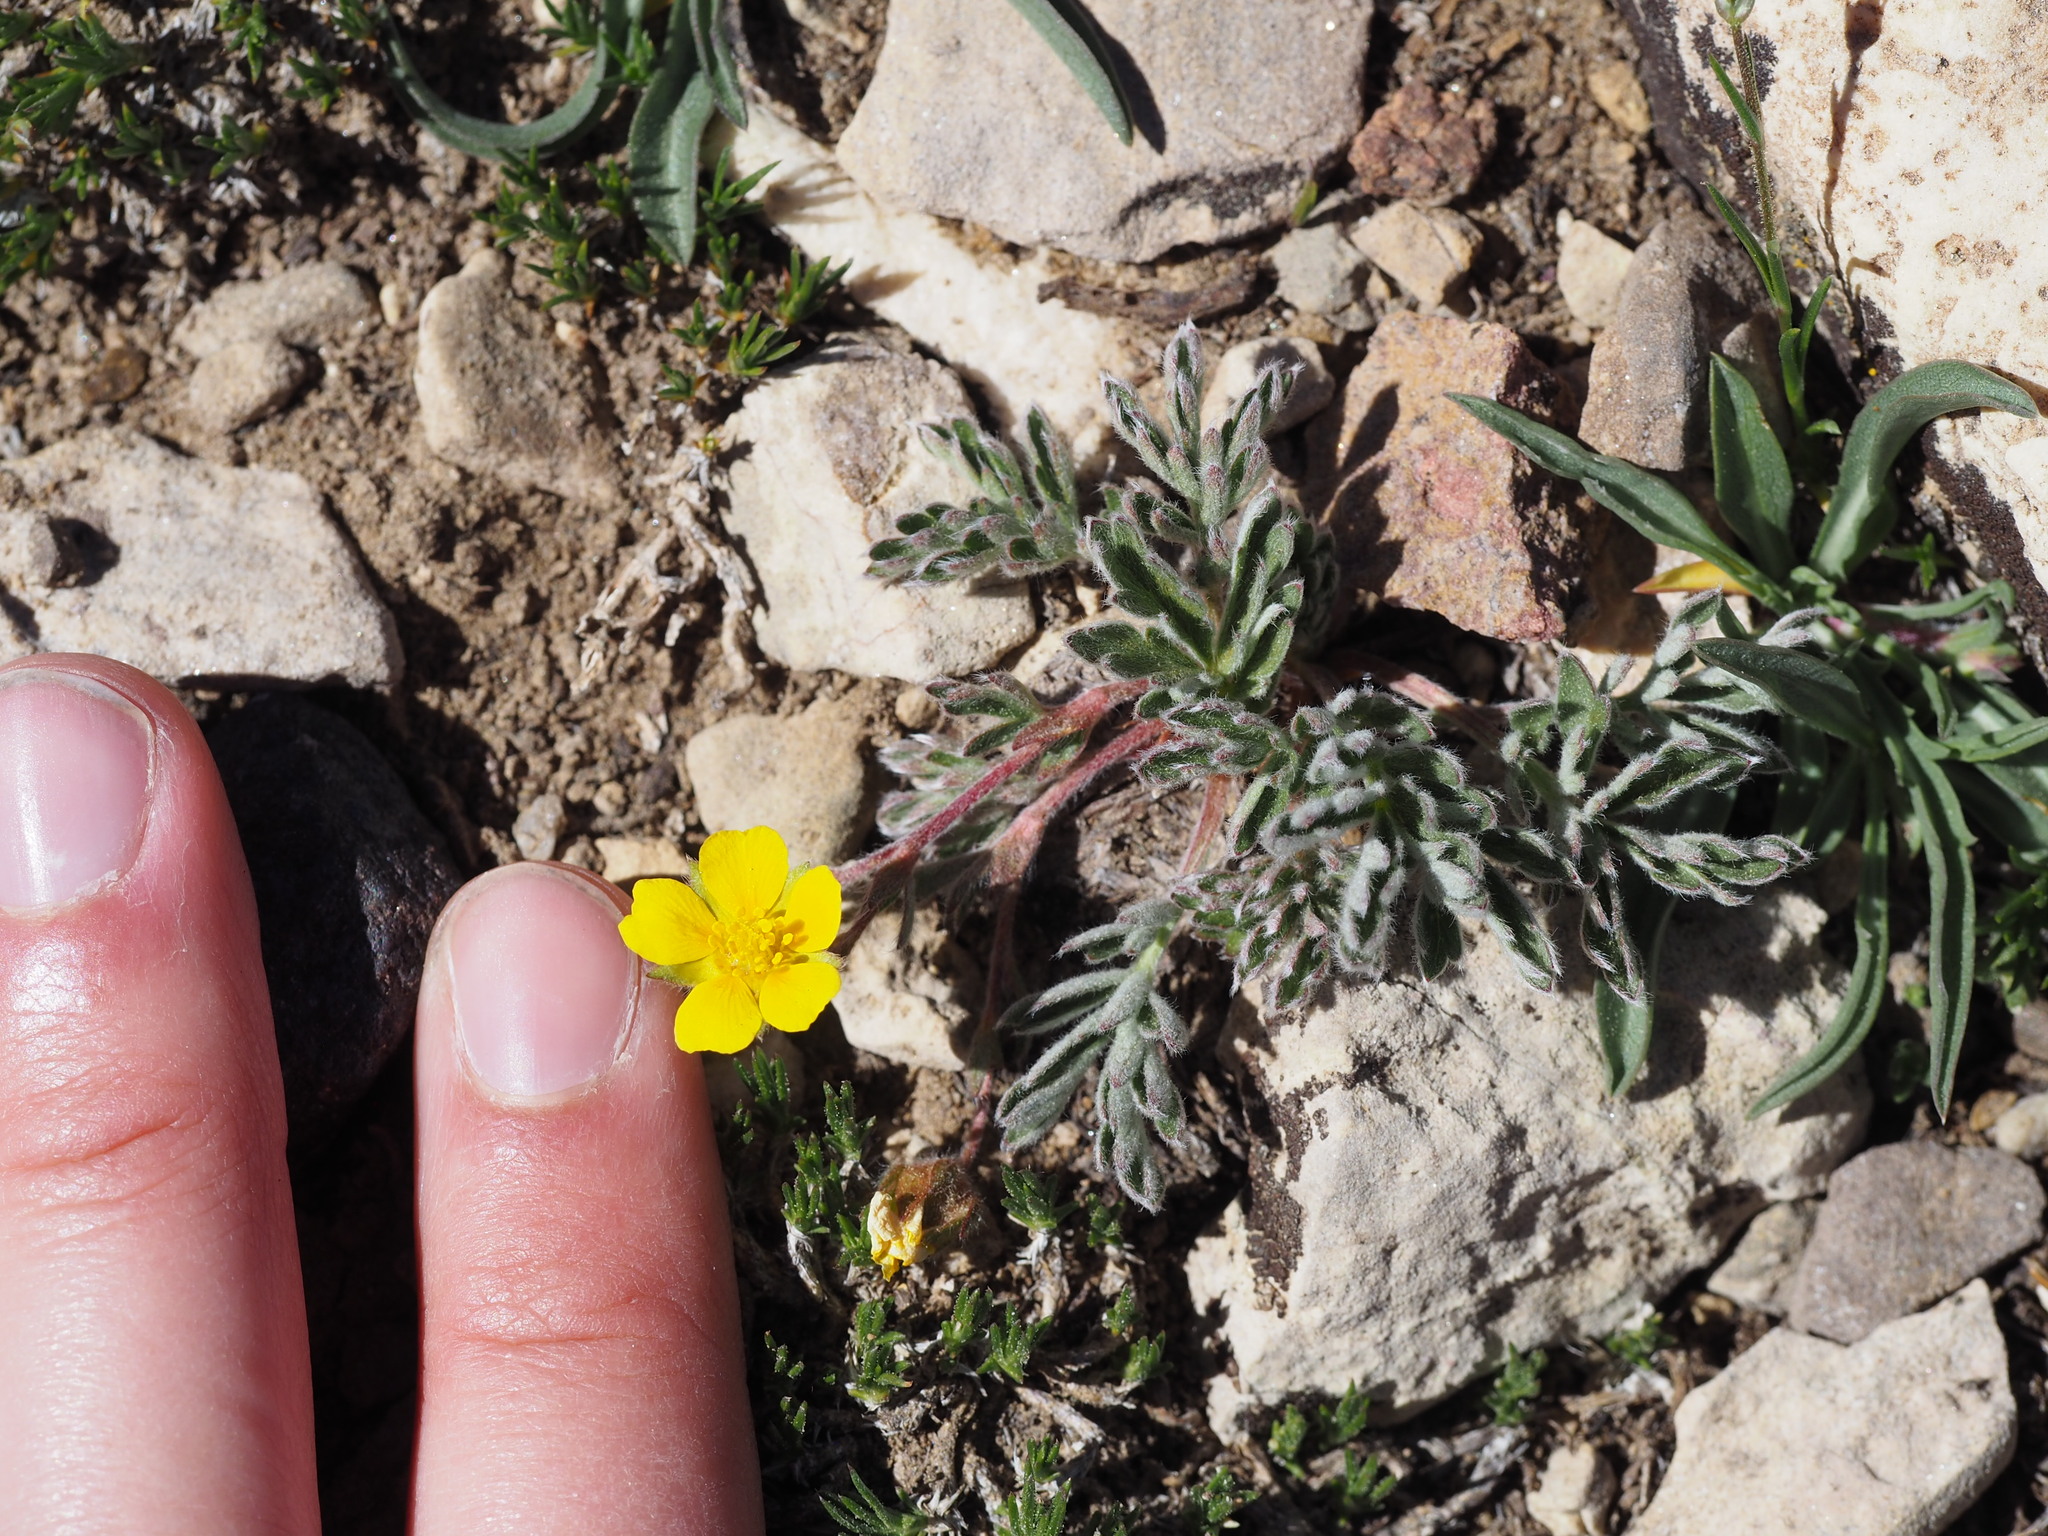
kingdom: Plantae
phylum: Tracheophyta
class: Magnoliopsida
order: Rosales
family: Rosaceae
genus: Potentilla
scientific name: Potentilla morefieldii
